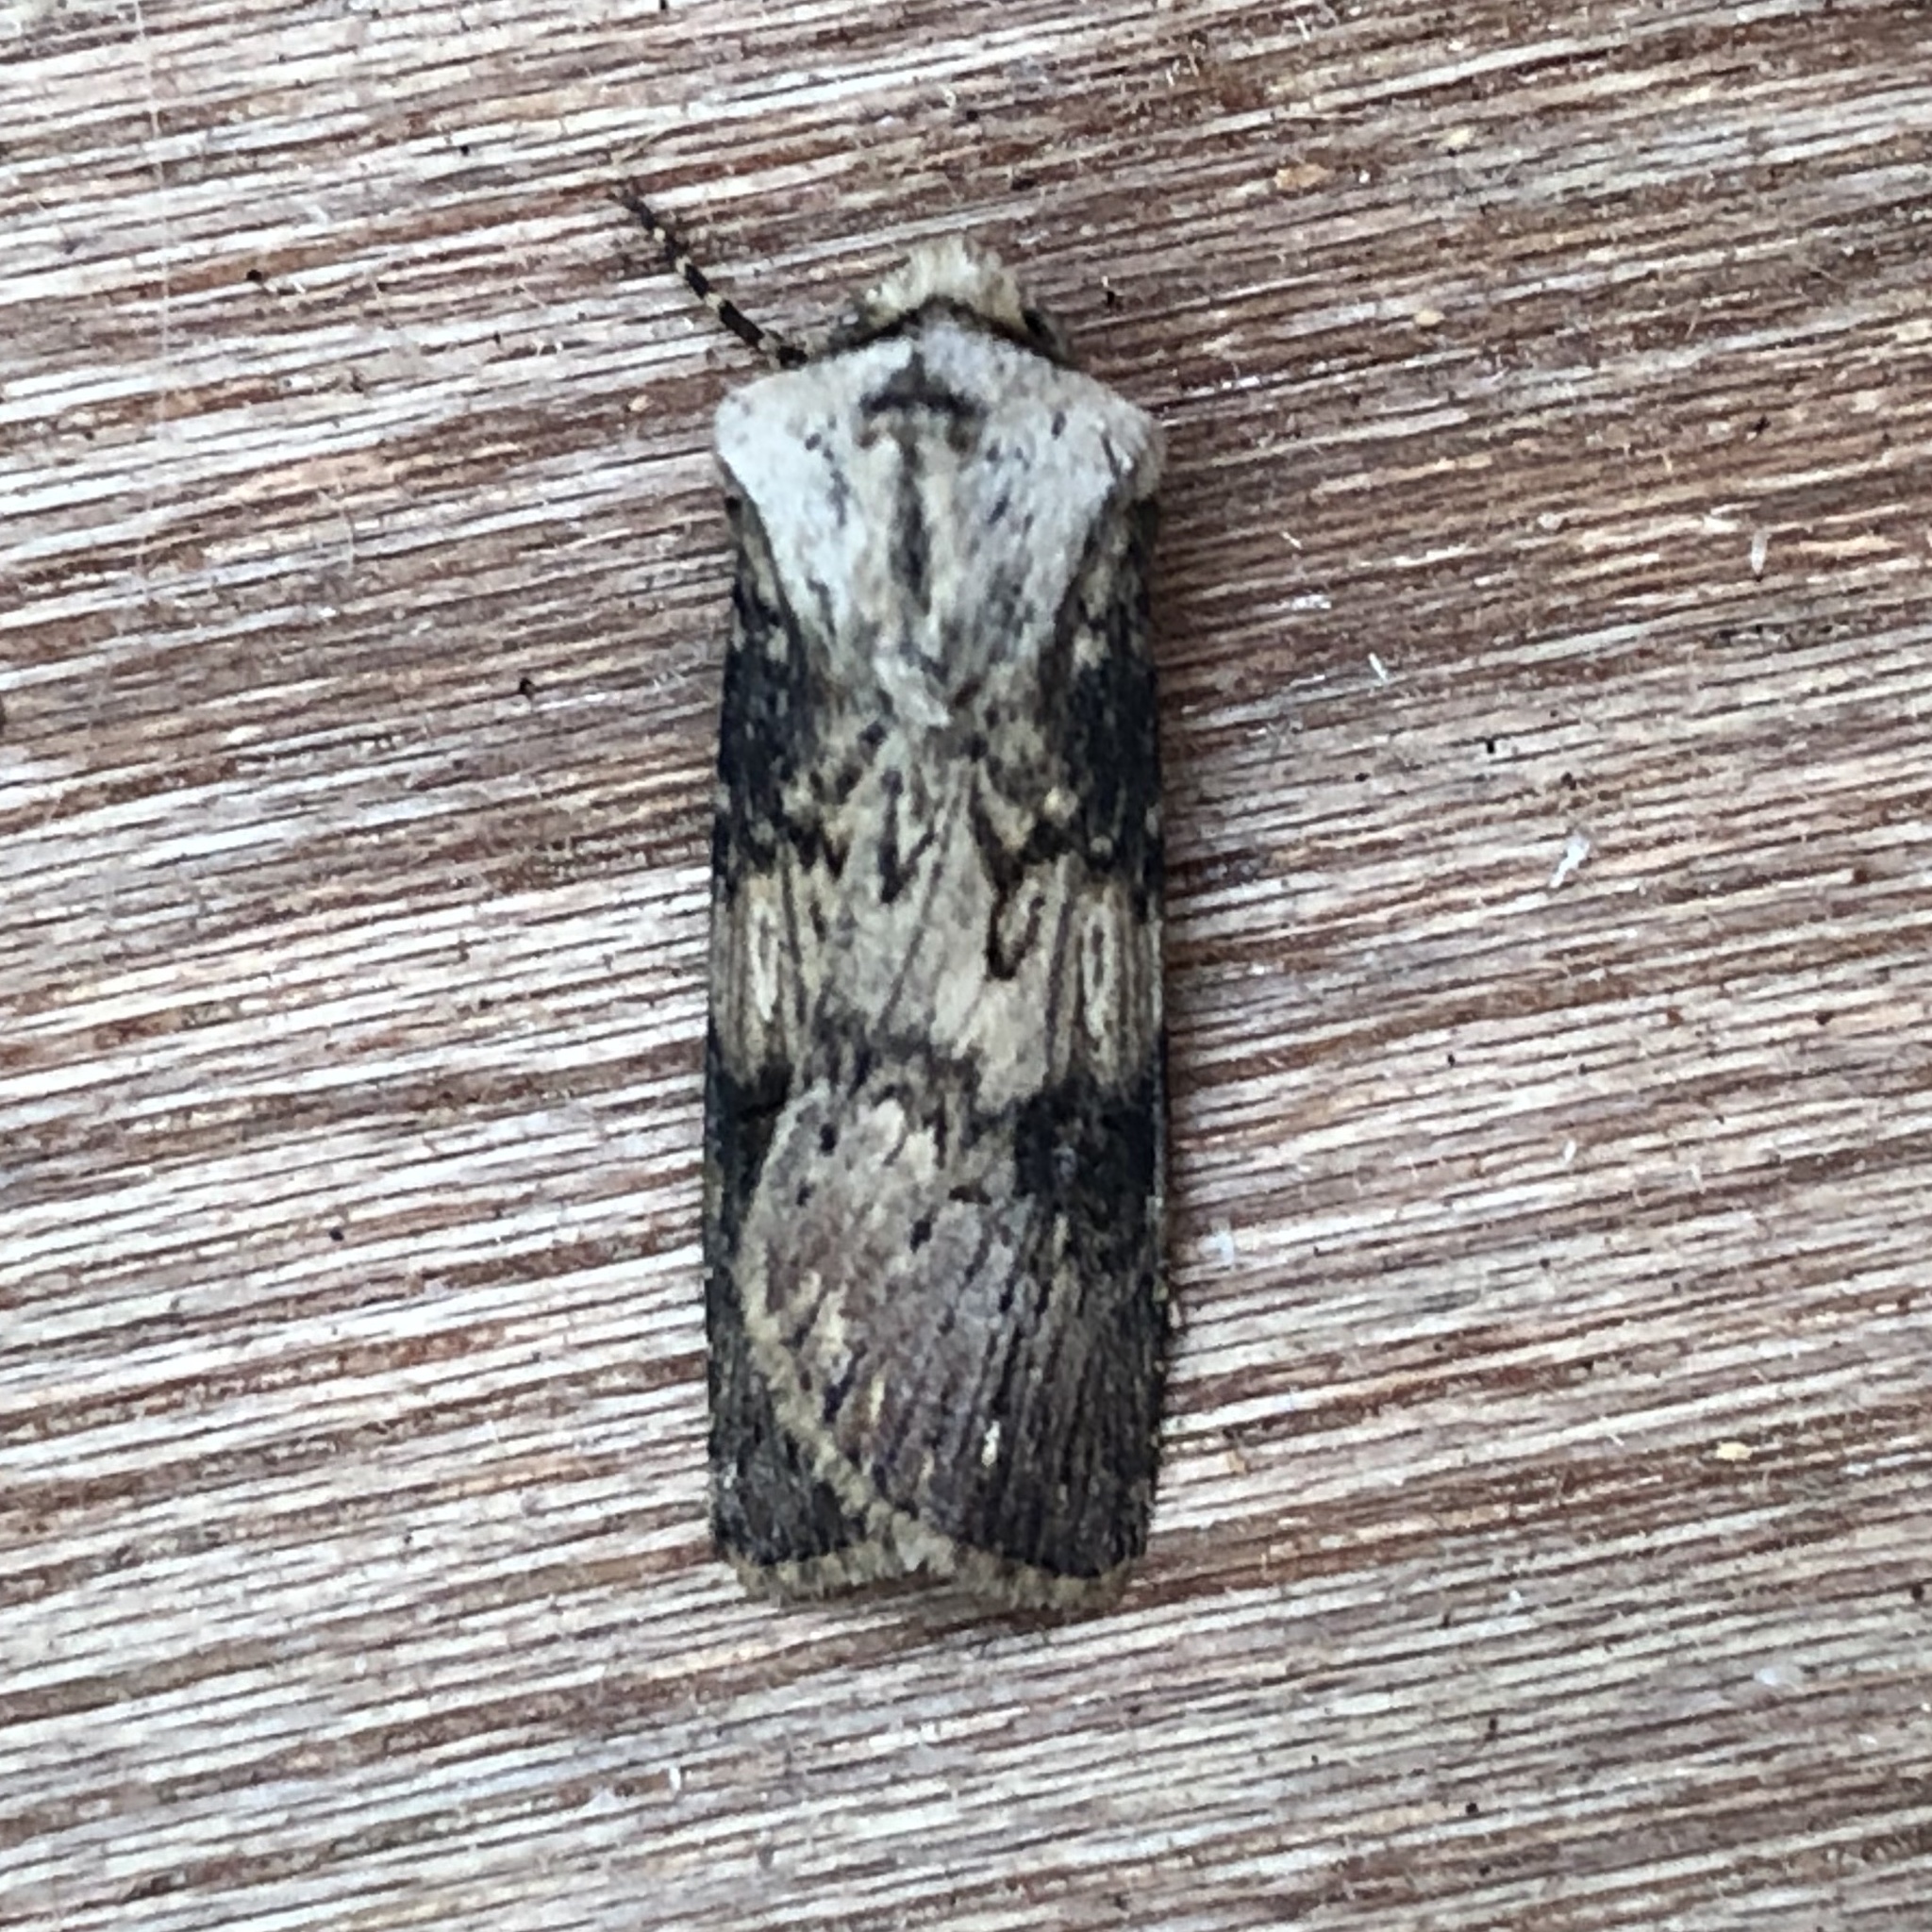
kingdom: Animalia
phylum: Arthropoda
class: Insecta
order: Lepidoptera
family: Noctuidae
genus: Agrotis
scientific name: Agrotis puta
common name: Shuttle-shaped dart
